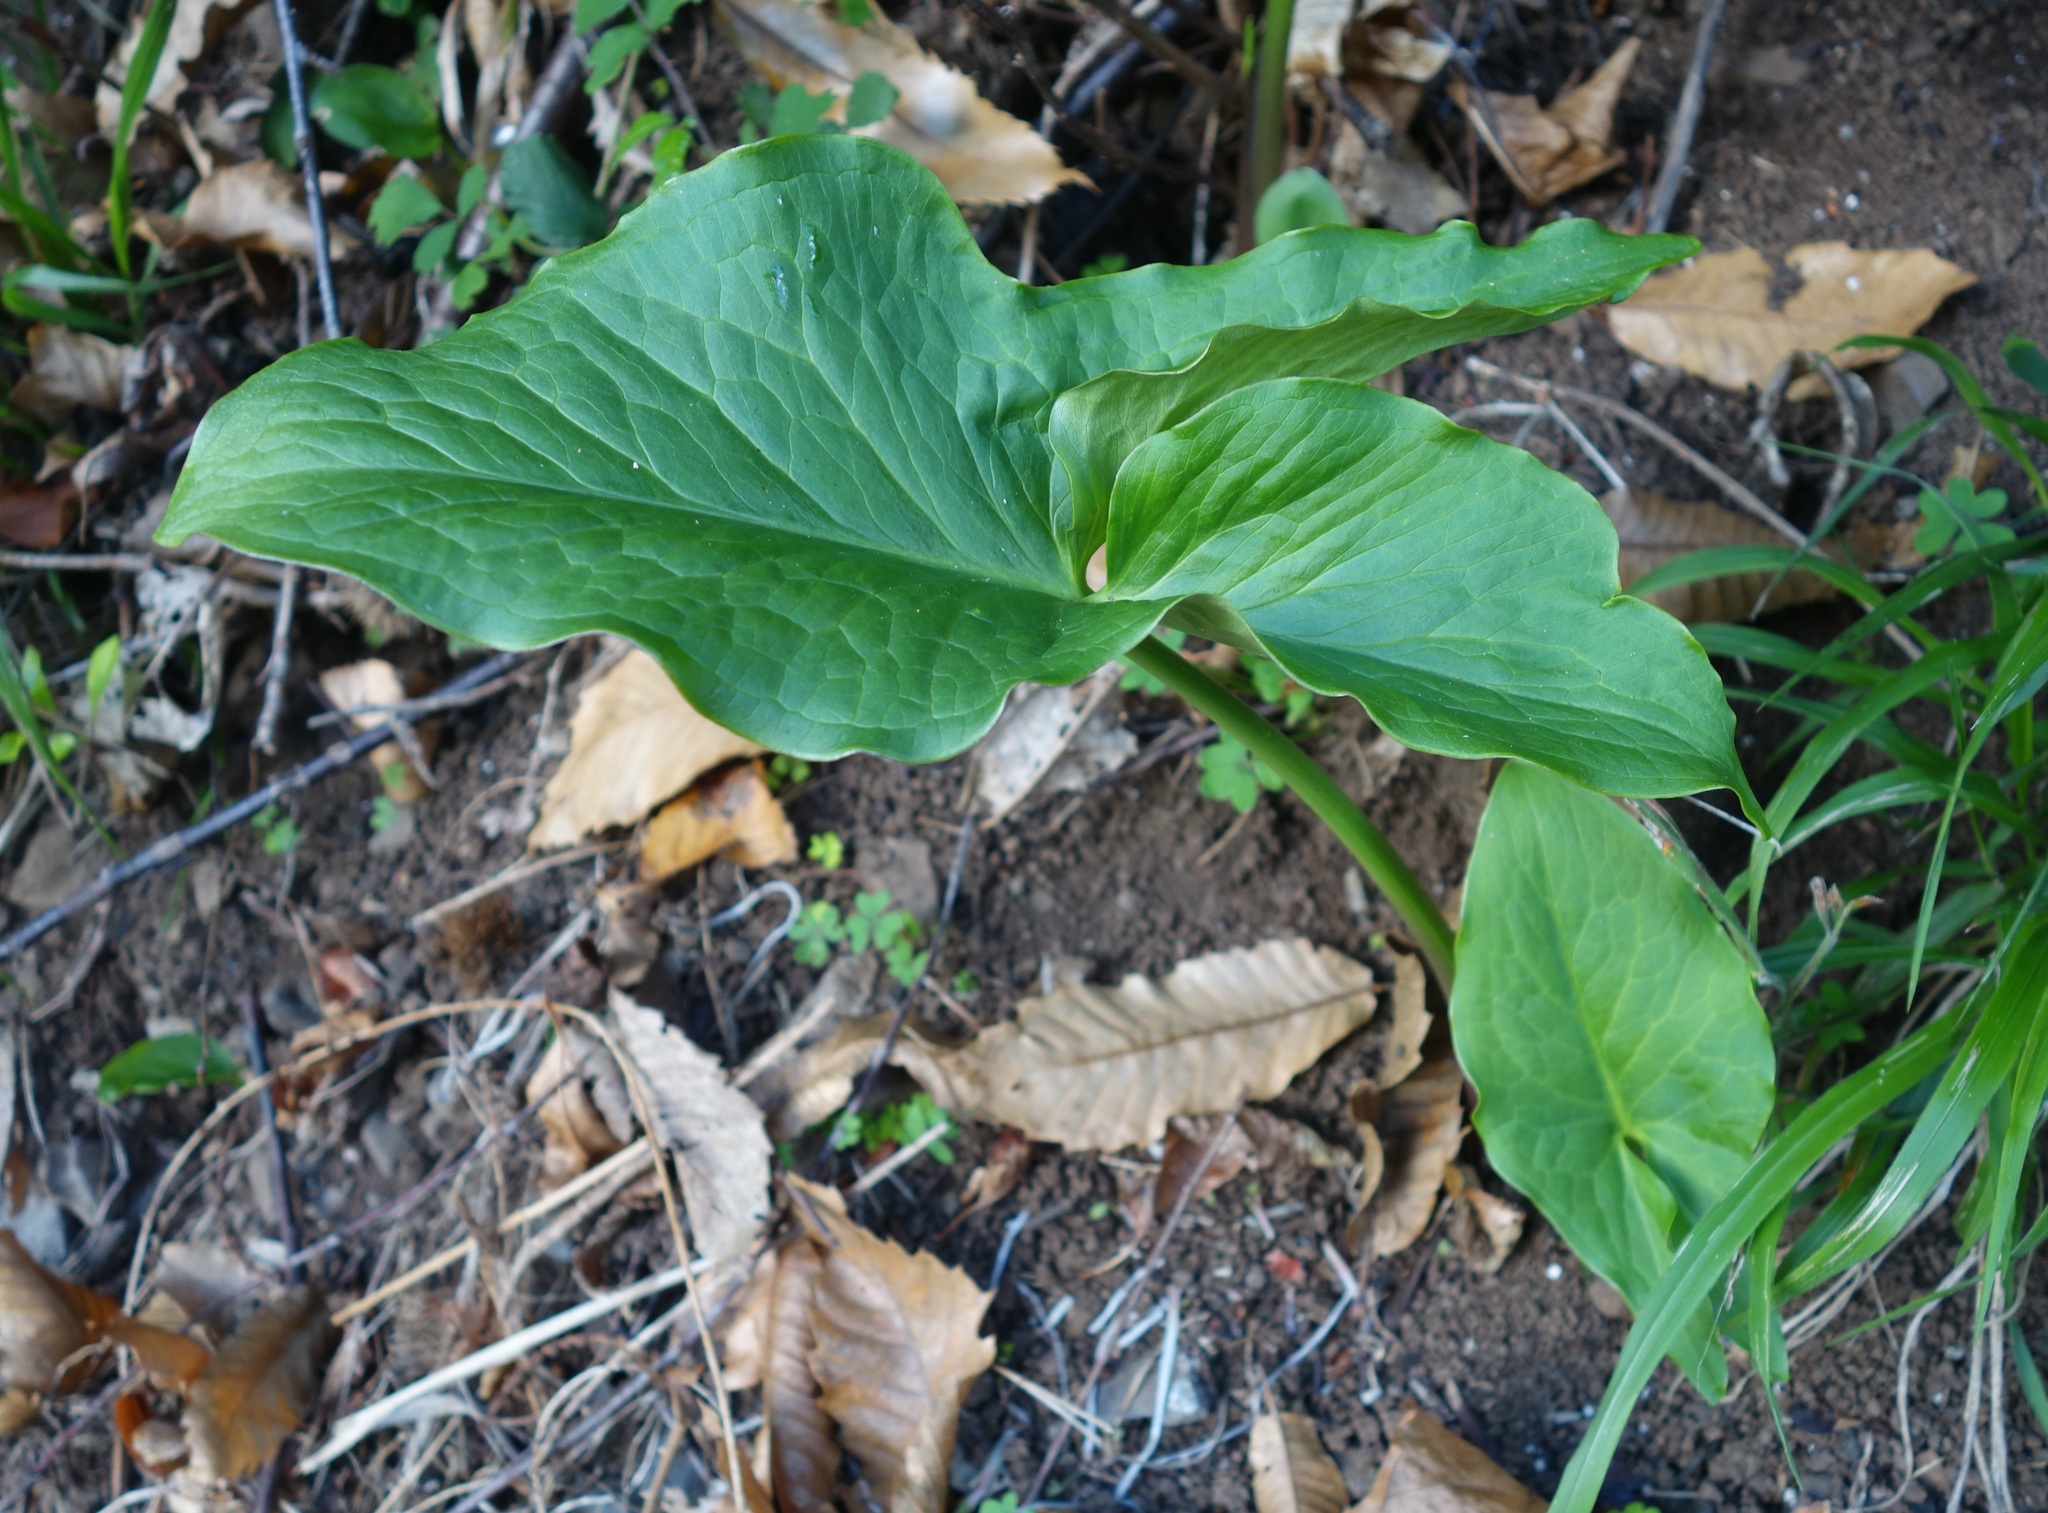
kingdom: Plantae
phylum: Tracheophyta
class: Liliopsida
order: Alismatales
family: Araceae
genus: Arum
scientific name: Arum italicum
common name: Italian lords-and-ladies
